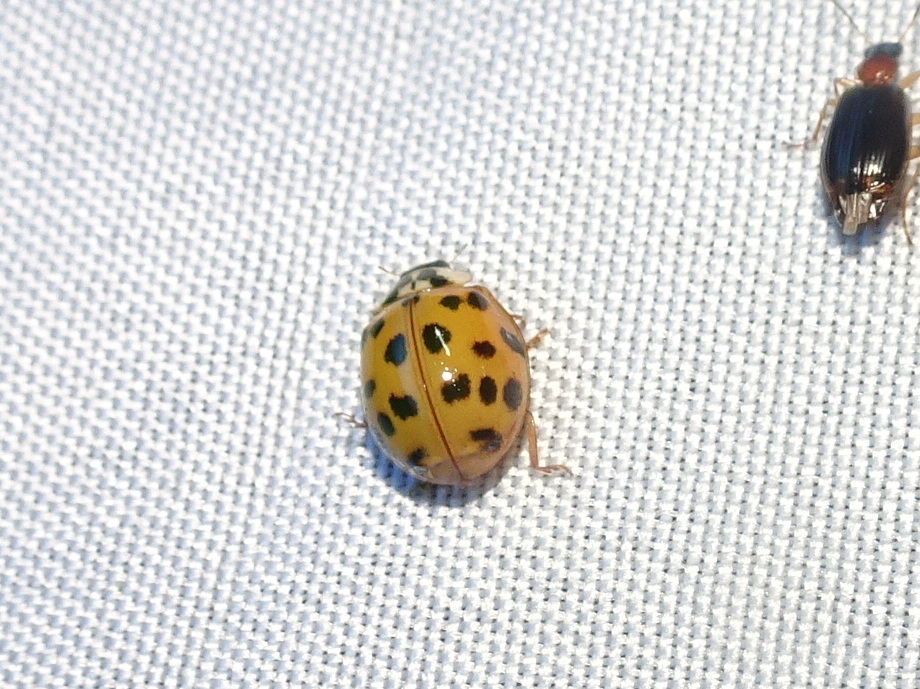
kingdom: Animalia
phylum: Arthropoda
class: Insecta
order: Coleoptera
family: Coccinellidae
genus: Harmonia
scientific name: Harmonia axyridis
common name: Harlequin ladybird
